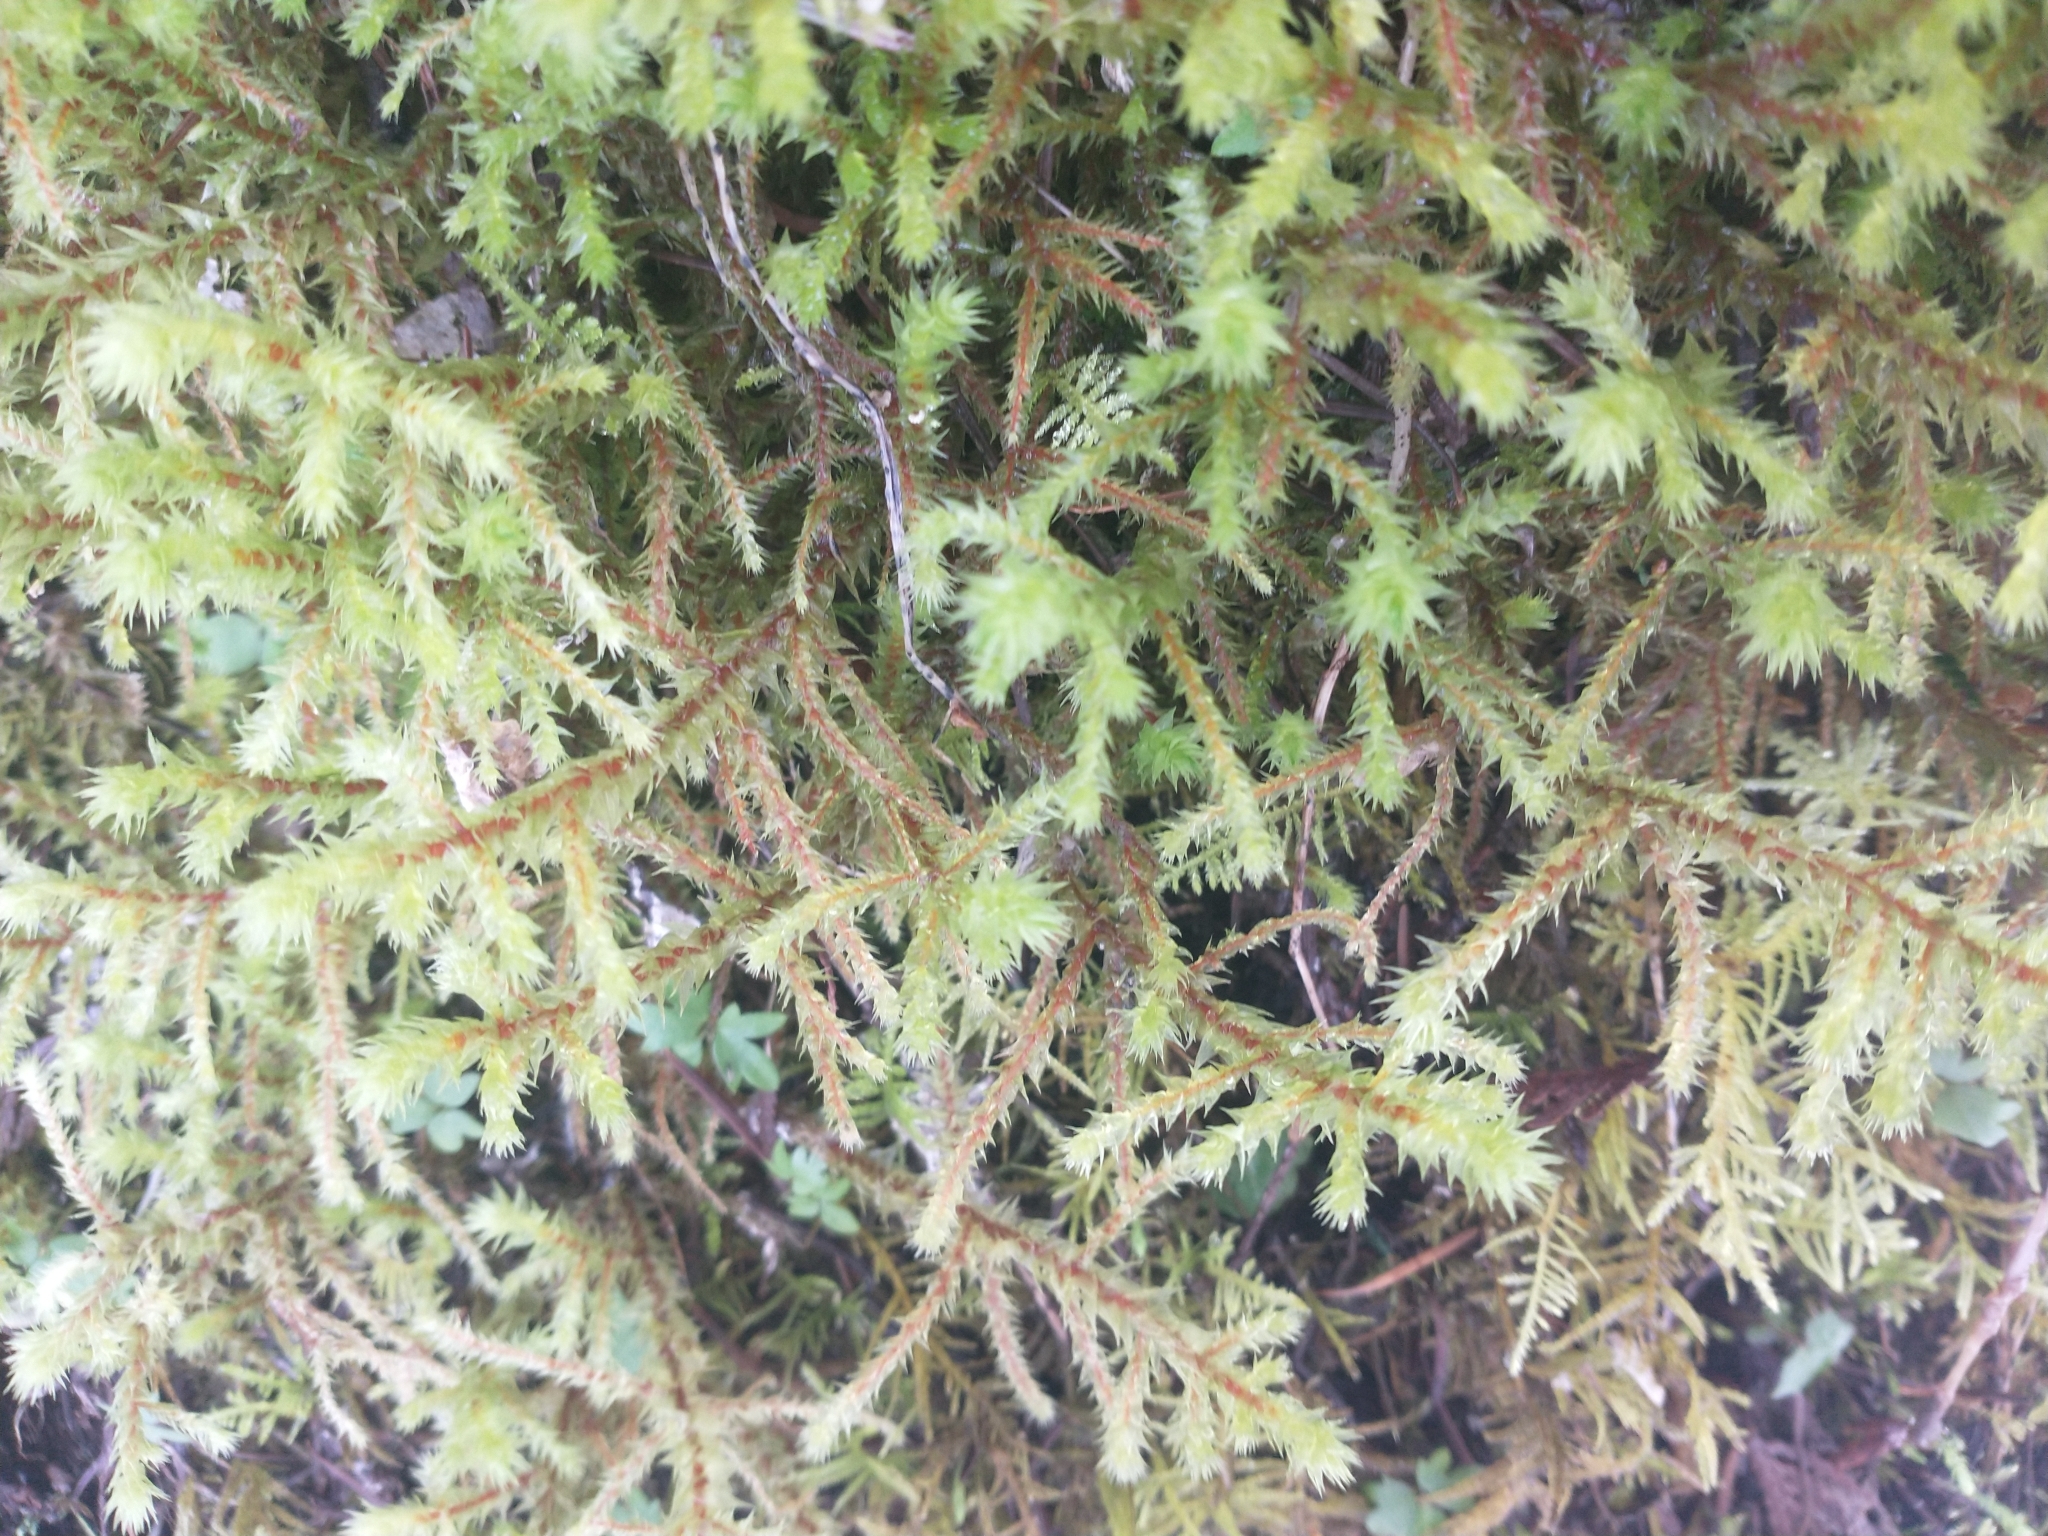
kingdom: Plantae
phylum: Bryophyta
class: Bryopsida
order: Hypnales
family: Hylocomiaceae
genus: Hylocomiadelphus
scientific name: Hylocomiadelphus triquetrus
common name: Rough goose neck moss
